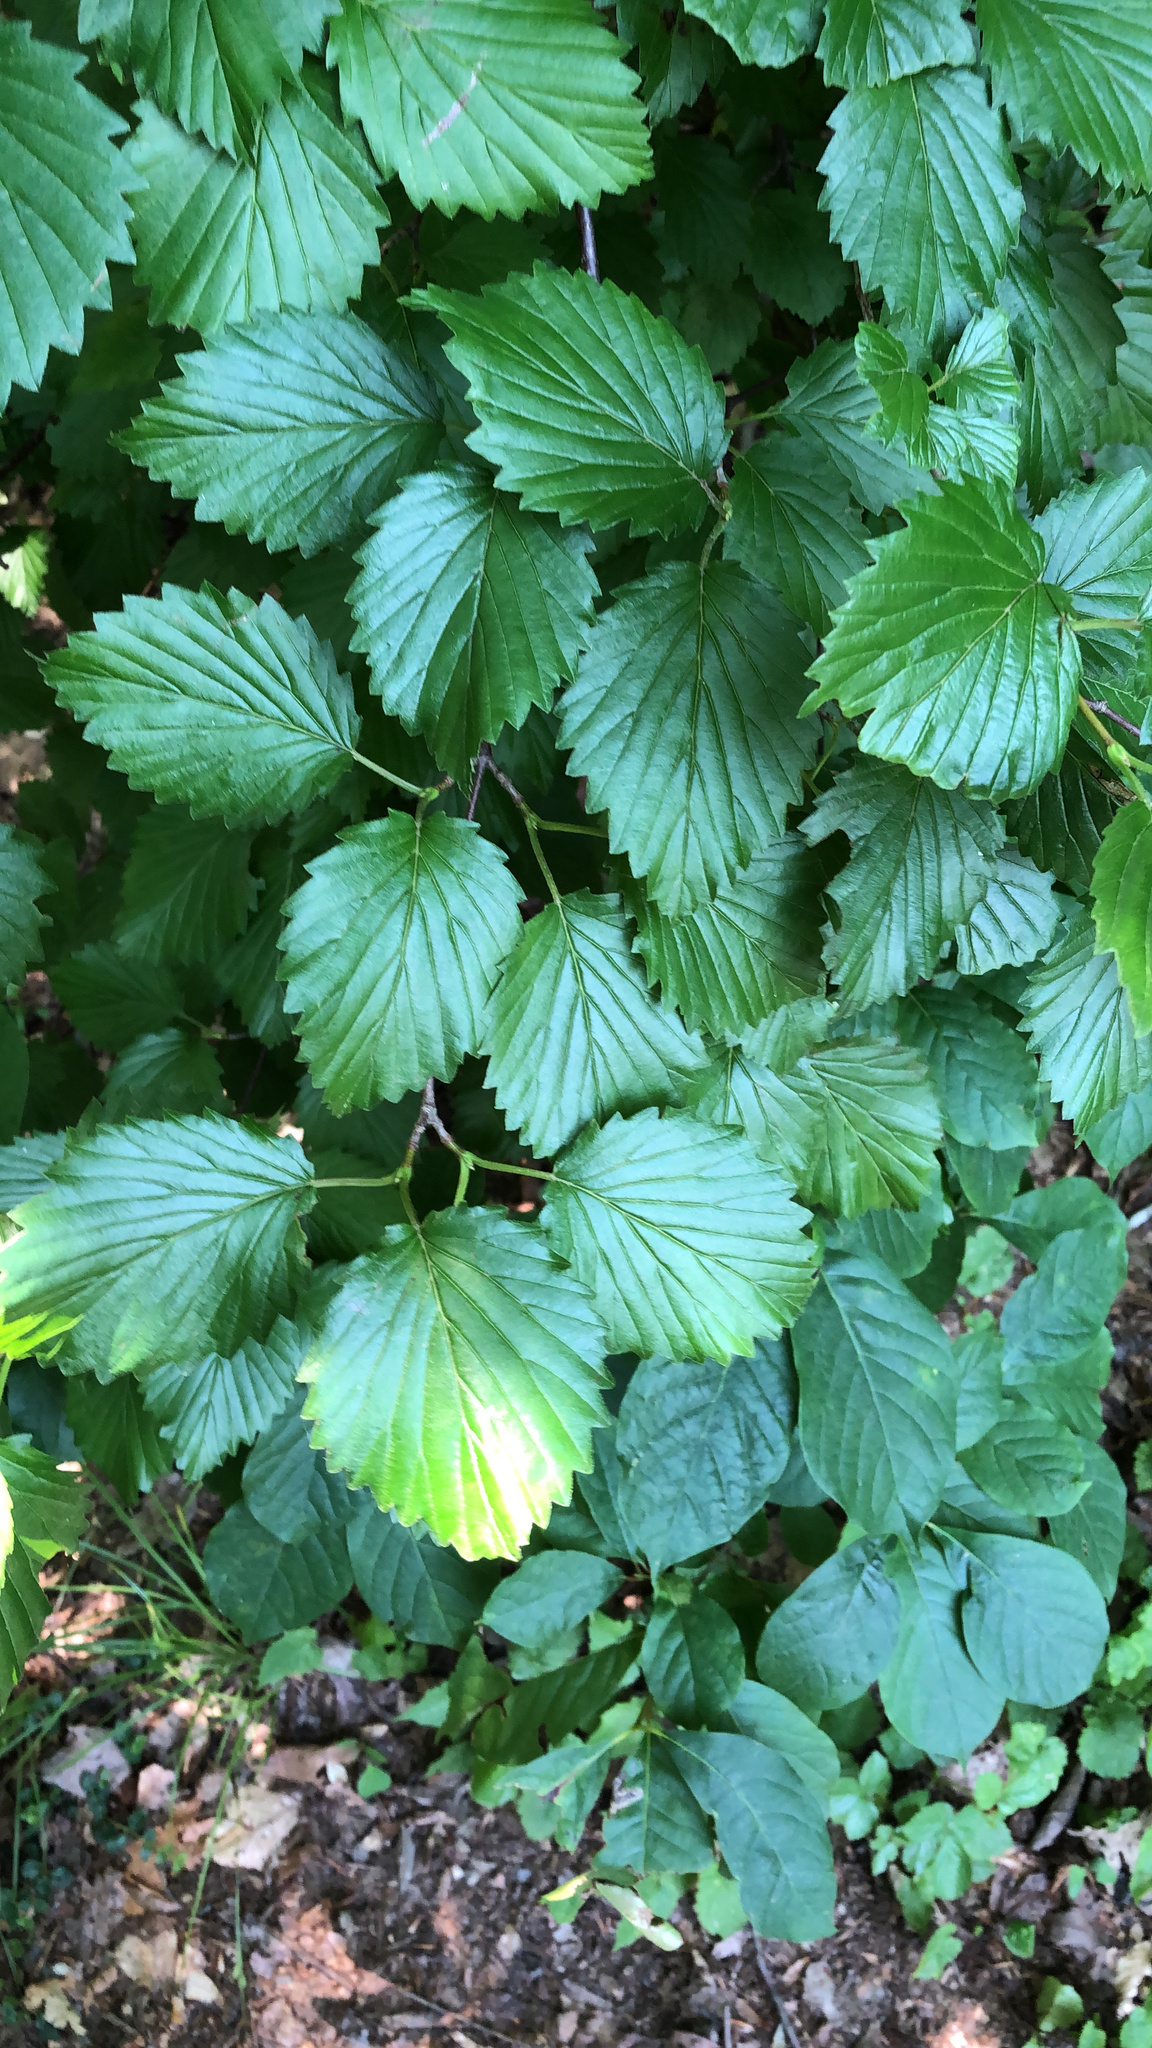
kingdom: Plantae
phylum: Tracheophyta
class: Magnoliopsida
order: Dipsacales
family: Viburnaceae
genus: Viburnum
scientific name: Viburnum dentatum
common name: Arrow-wood
